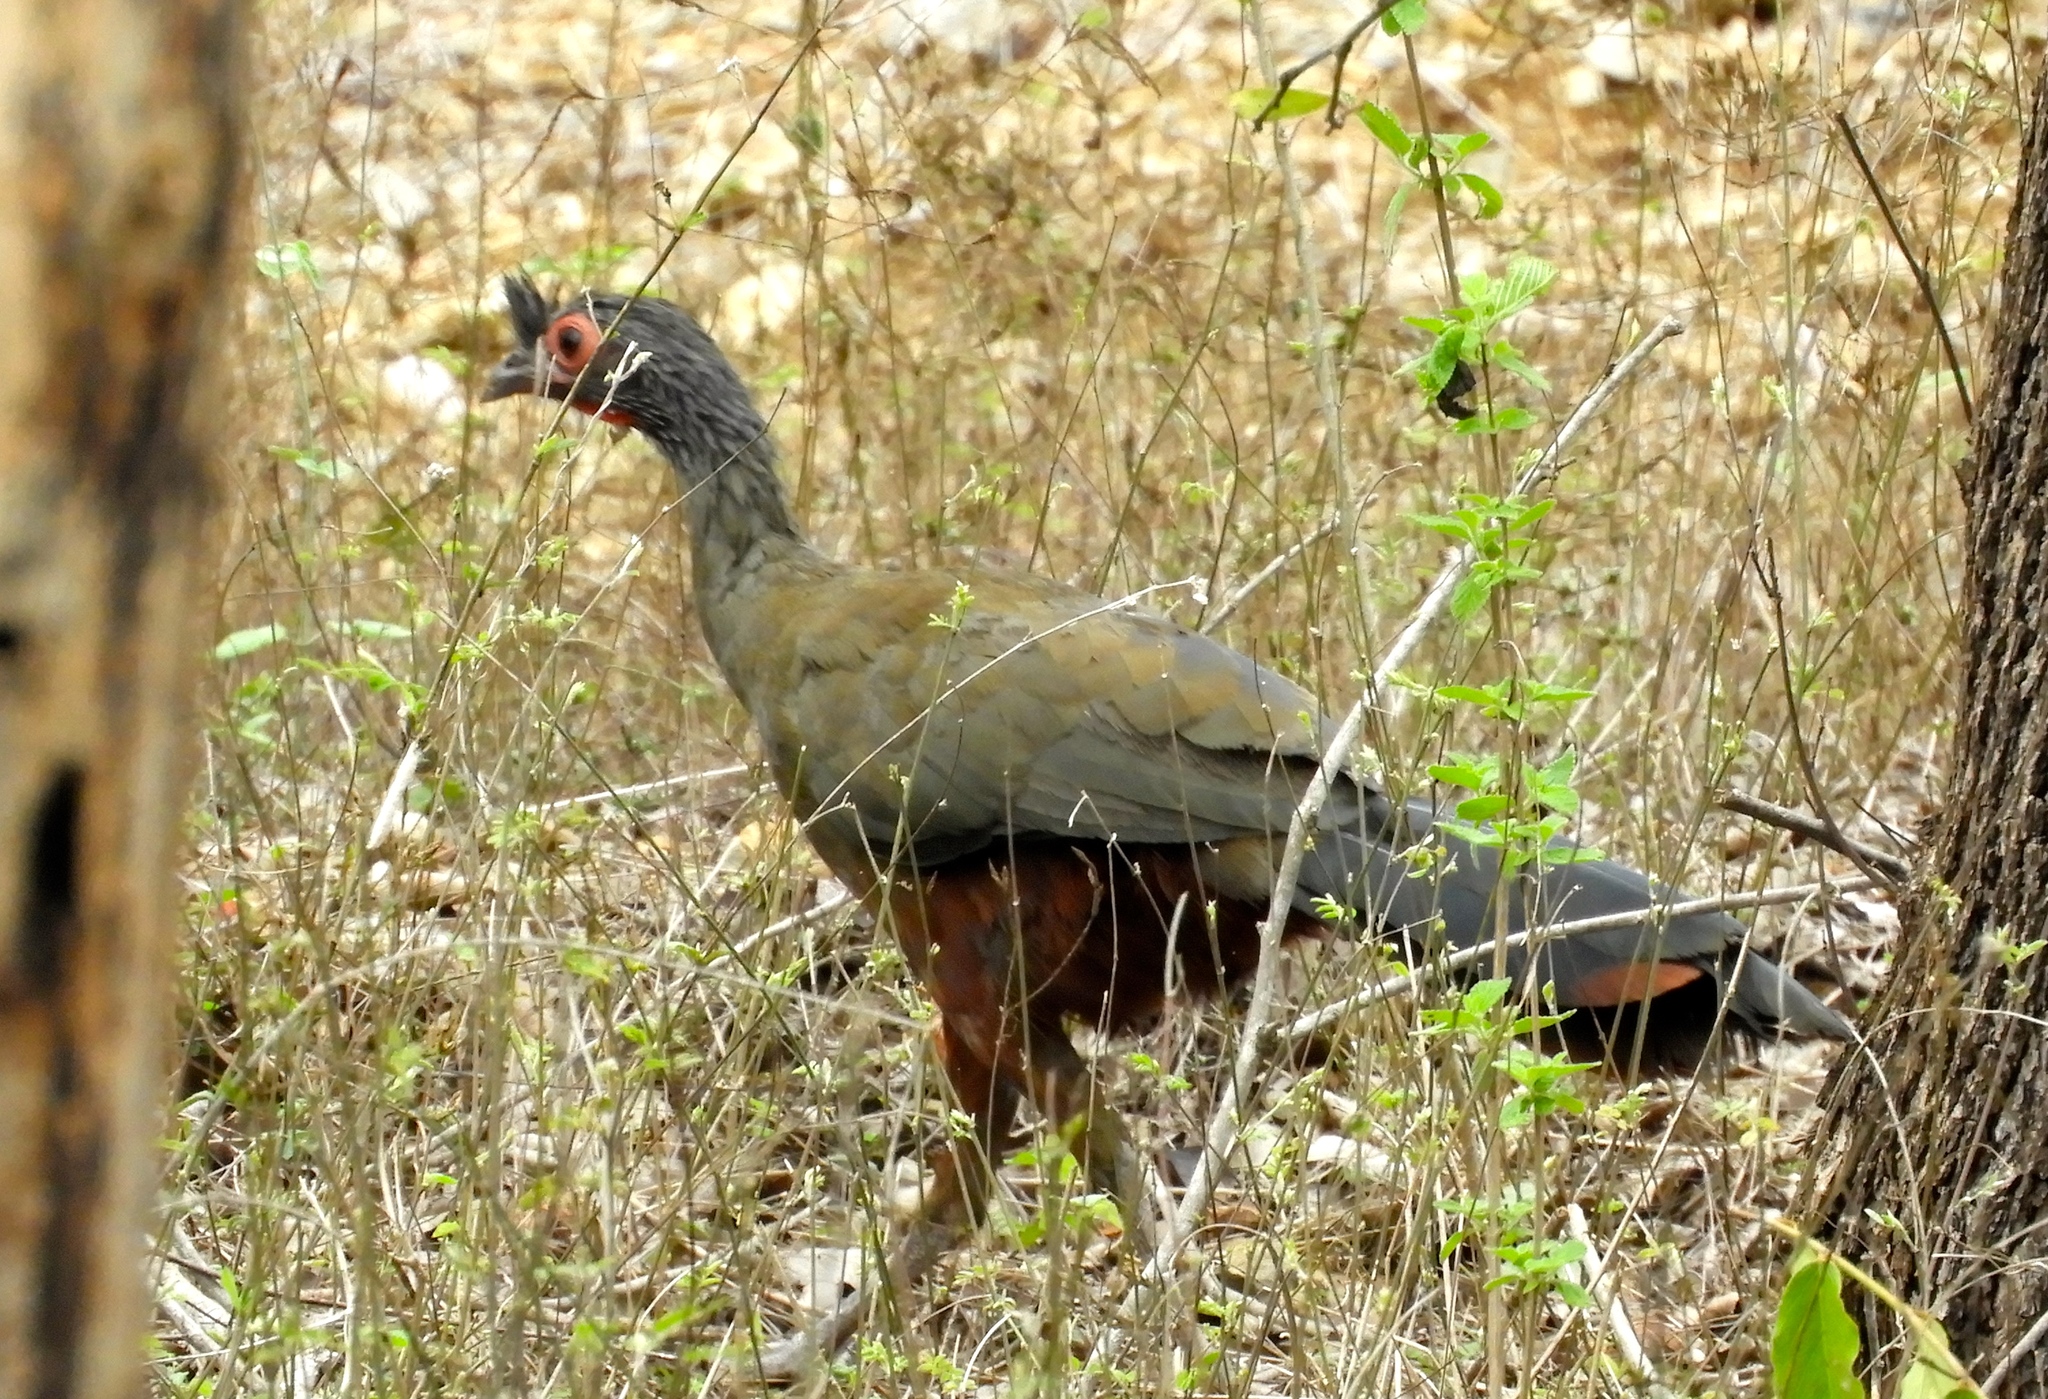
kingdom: Animalia
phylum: Chordata
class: Aves
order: Galliformes
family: Cracidae
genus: Ortalis
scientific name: Ortalis wagleri
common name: Rufous-bellied chachalaca
